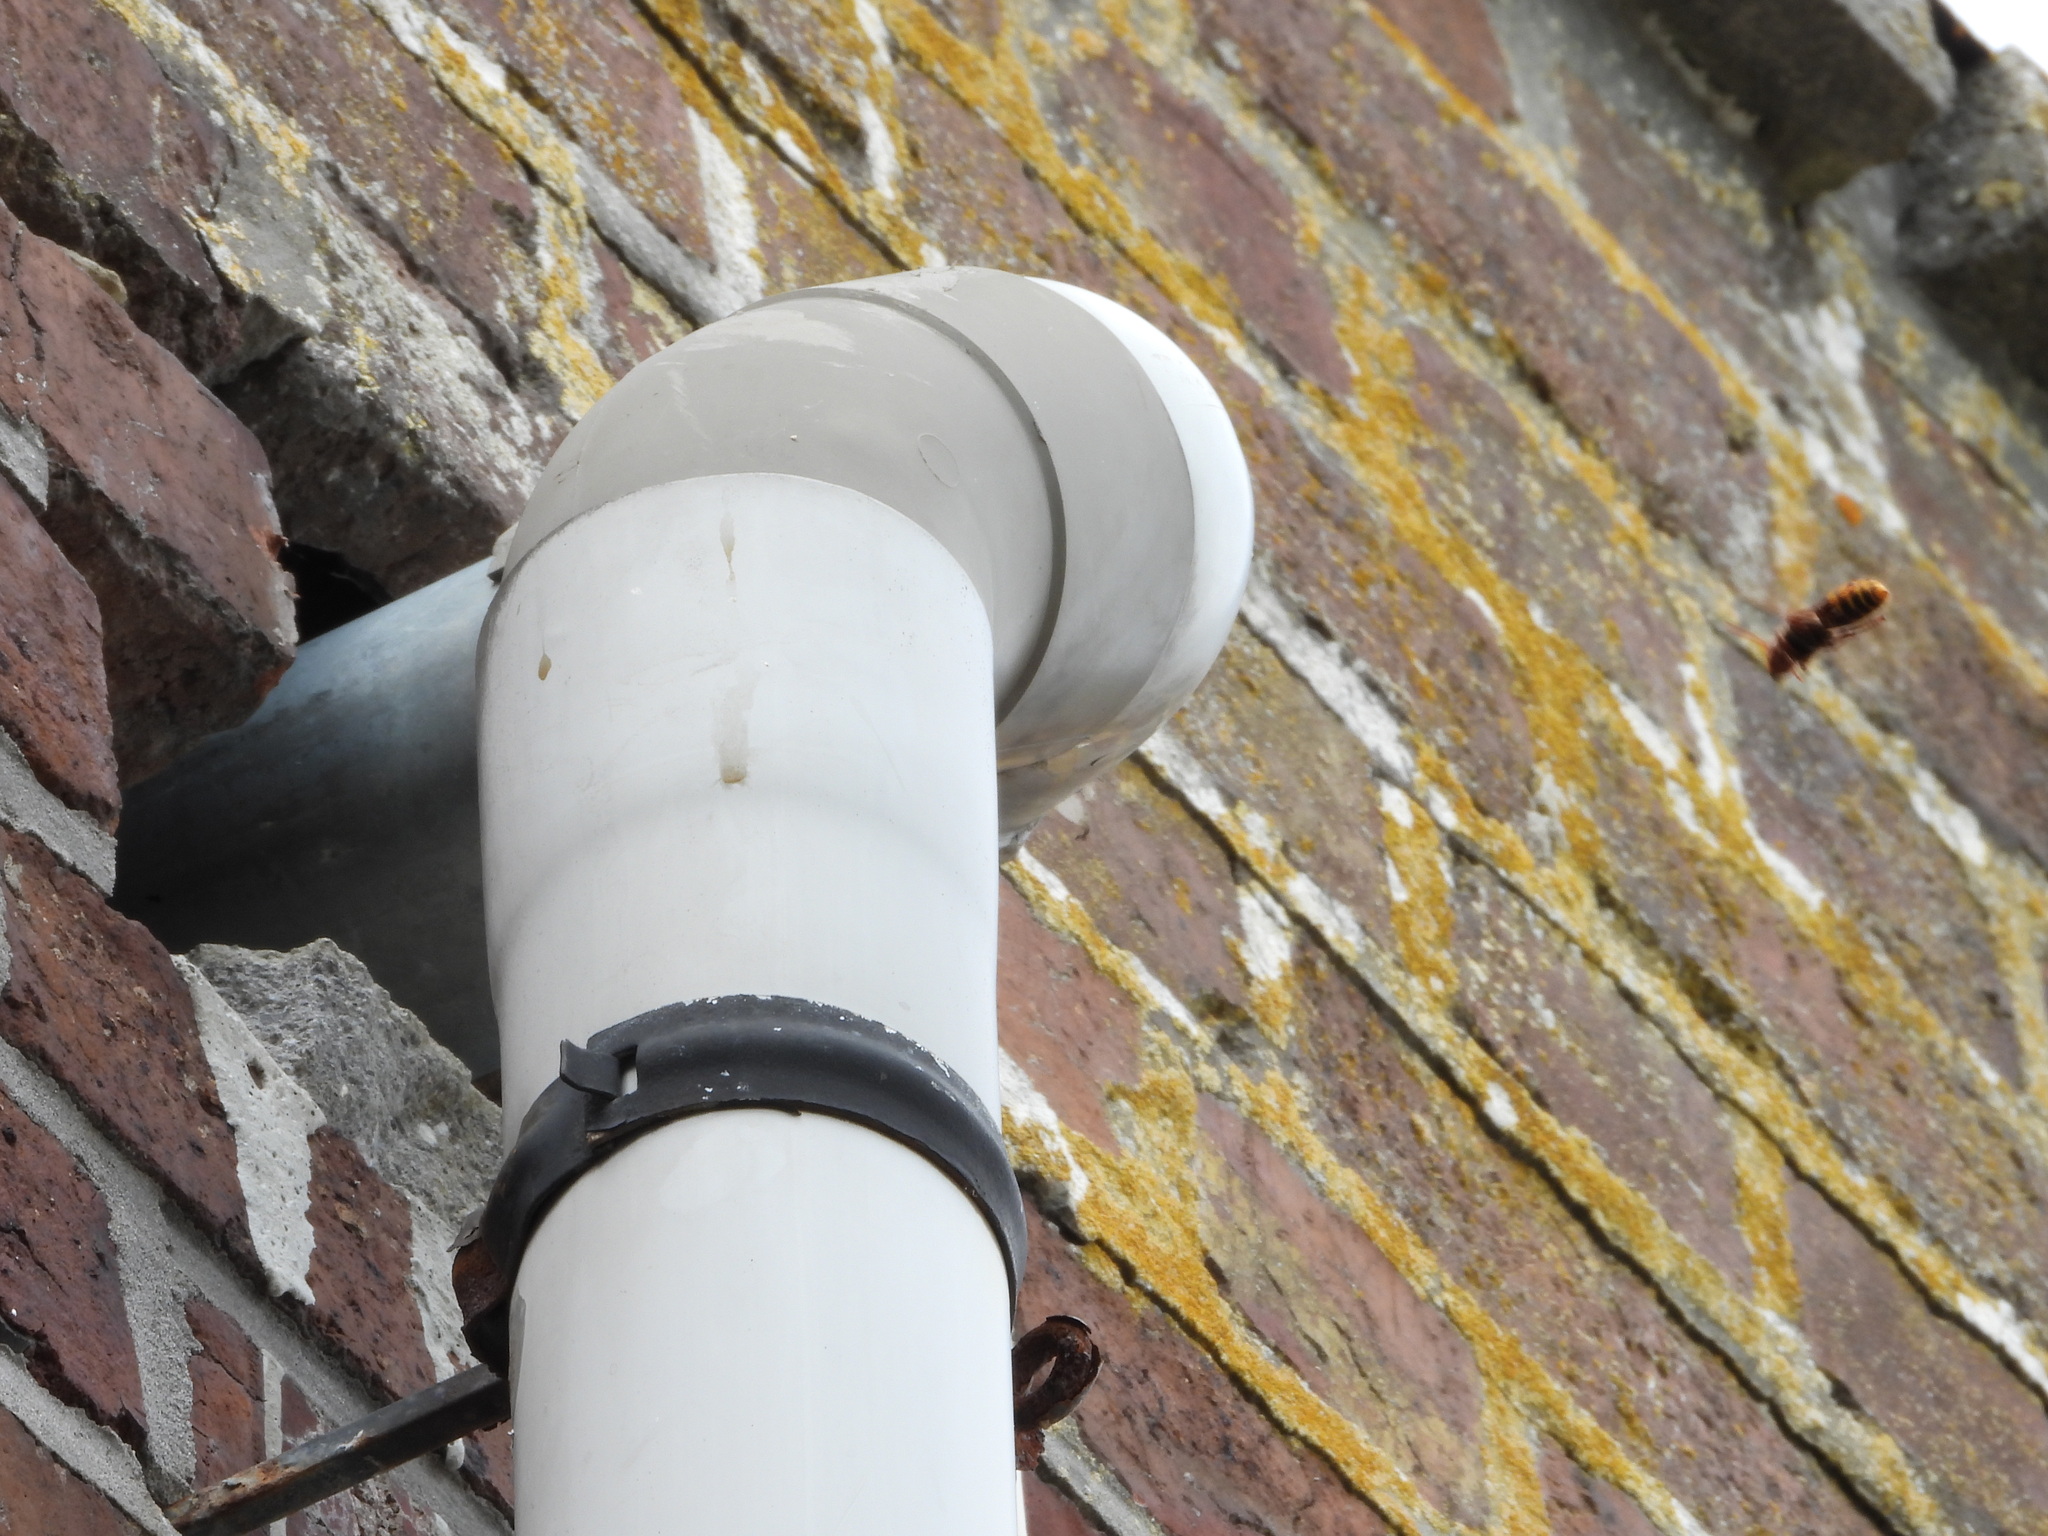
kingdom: Animalia
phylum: Arthropoda
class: Insecta
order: Hymenoptera
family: Vespidae
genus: Vespa
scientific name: Vespa crabro
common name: Hornet
